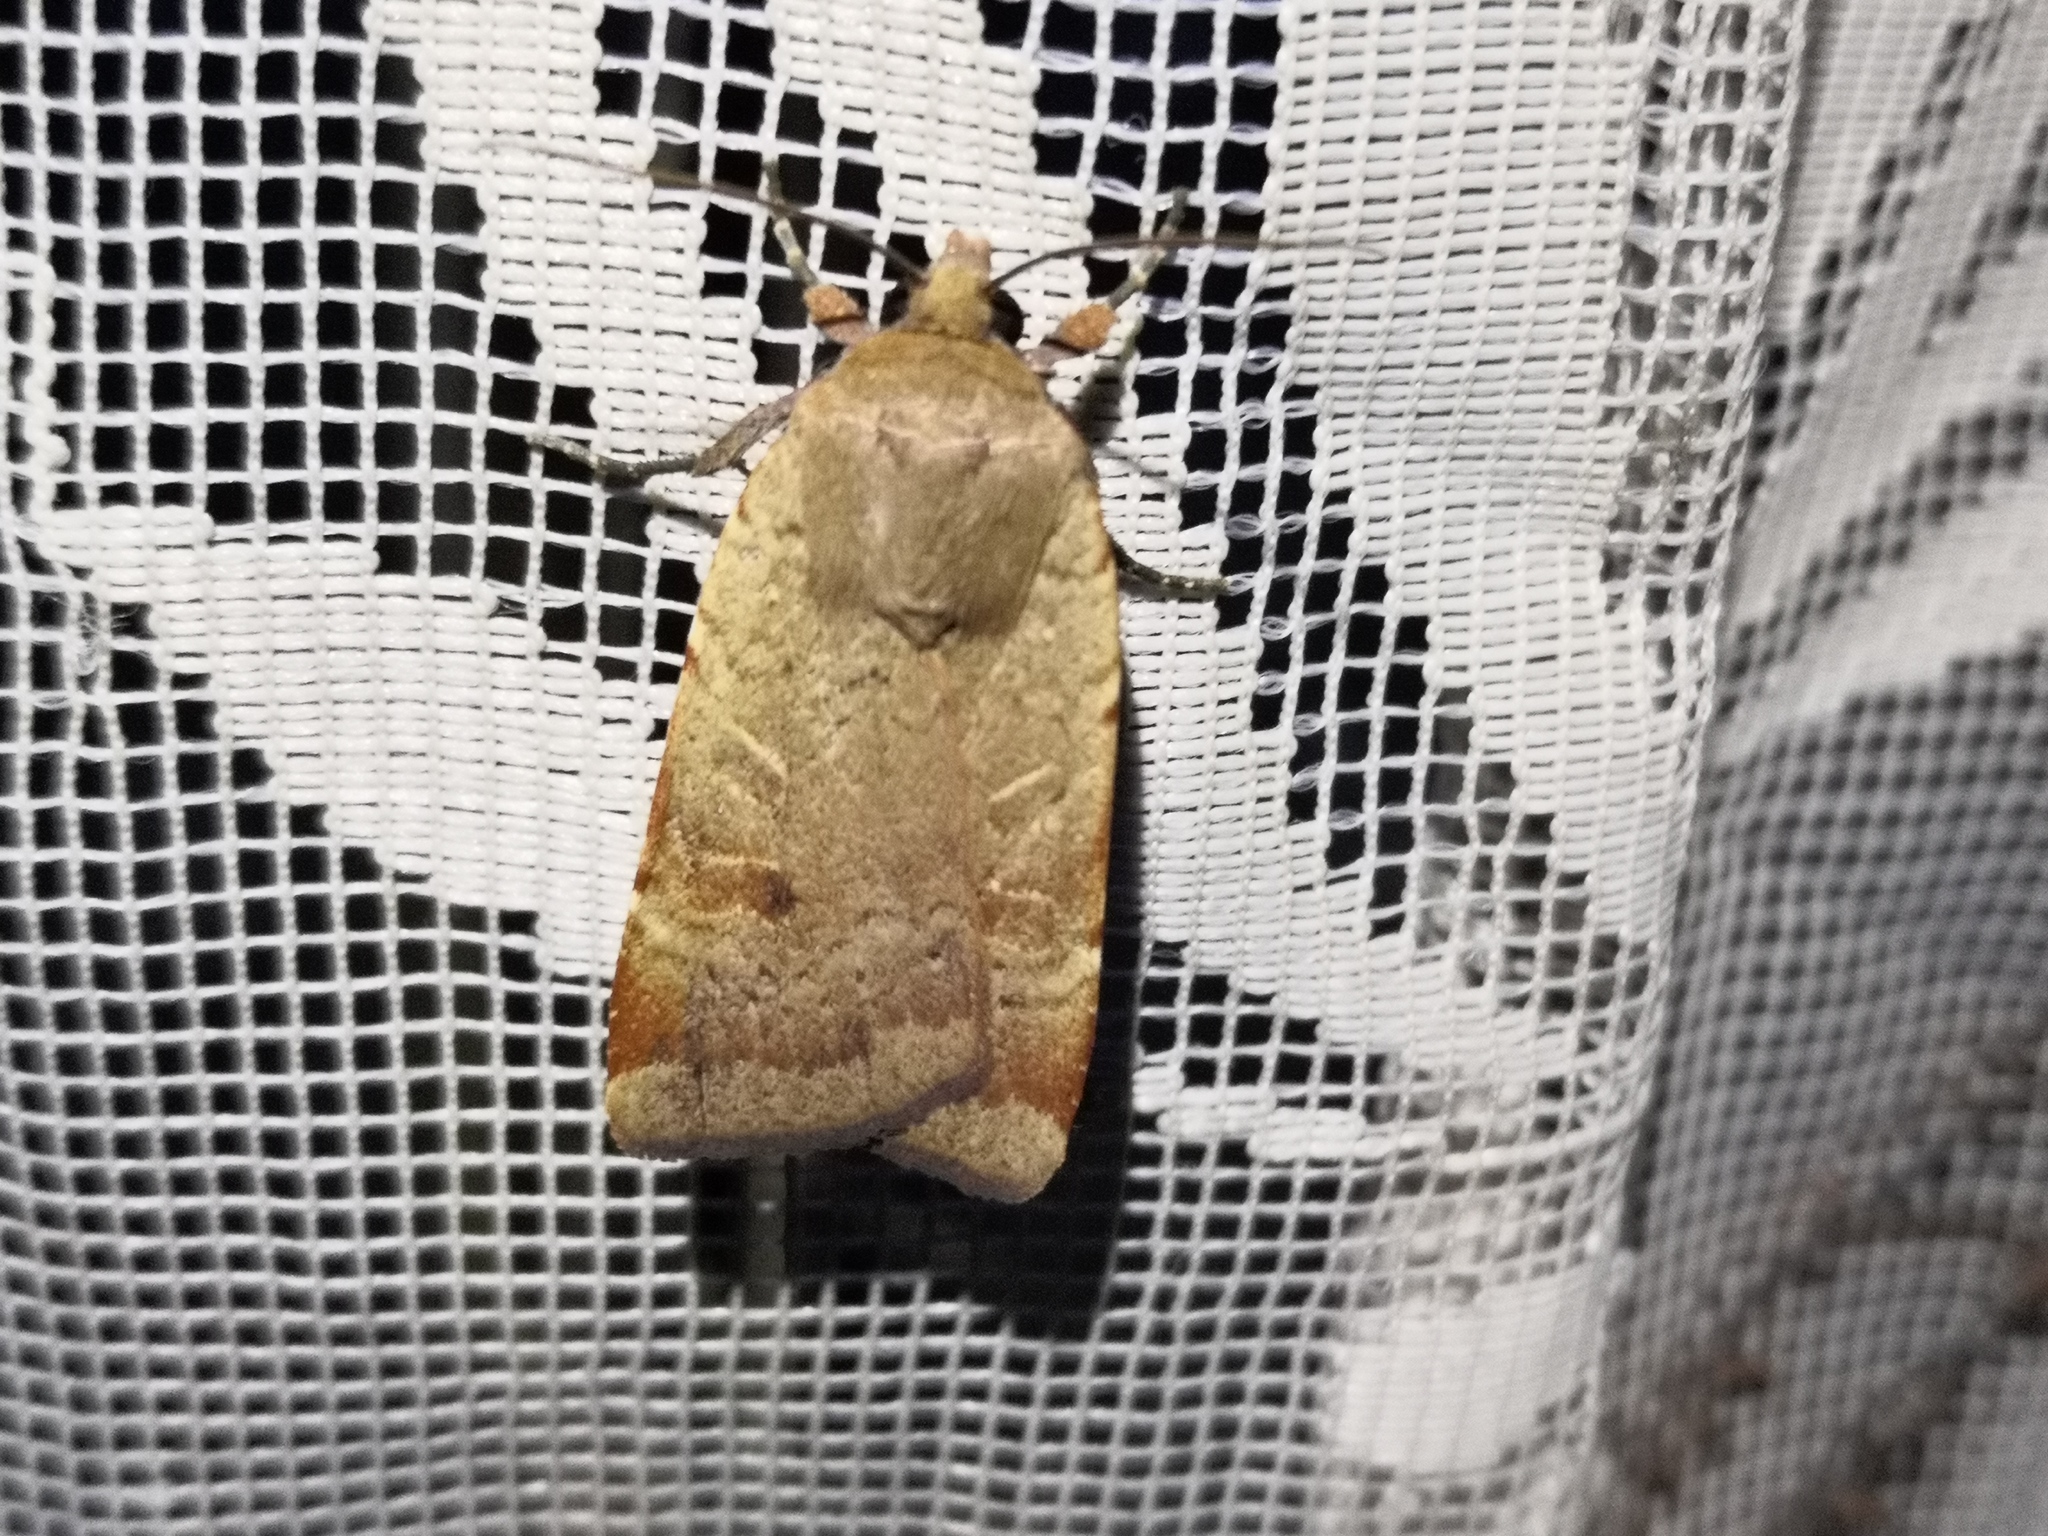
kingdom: Animalia
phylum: Arthropoda
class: Insecta
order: Lepidoptera
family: Noctuidae
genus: Noctua
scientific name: Noctua comes
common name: Lesser yellow underwing
